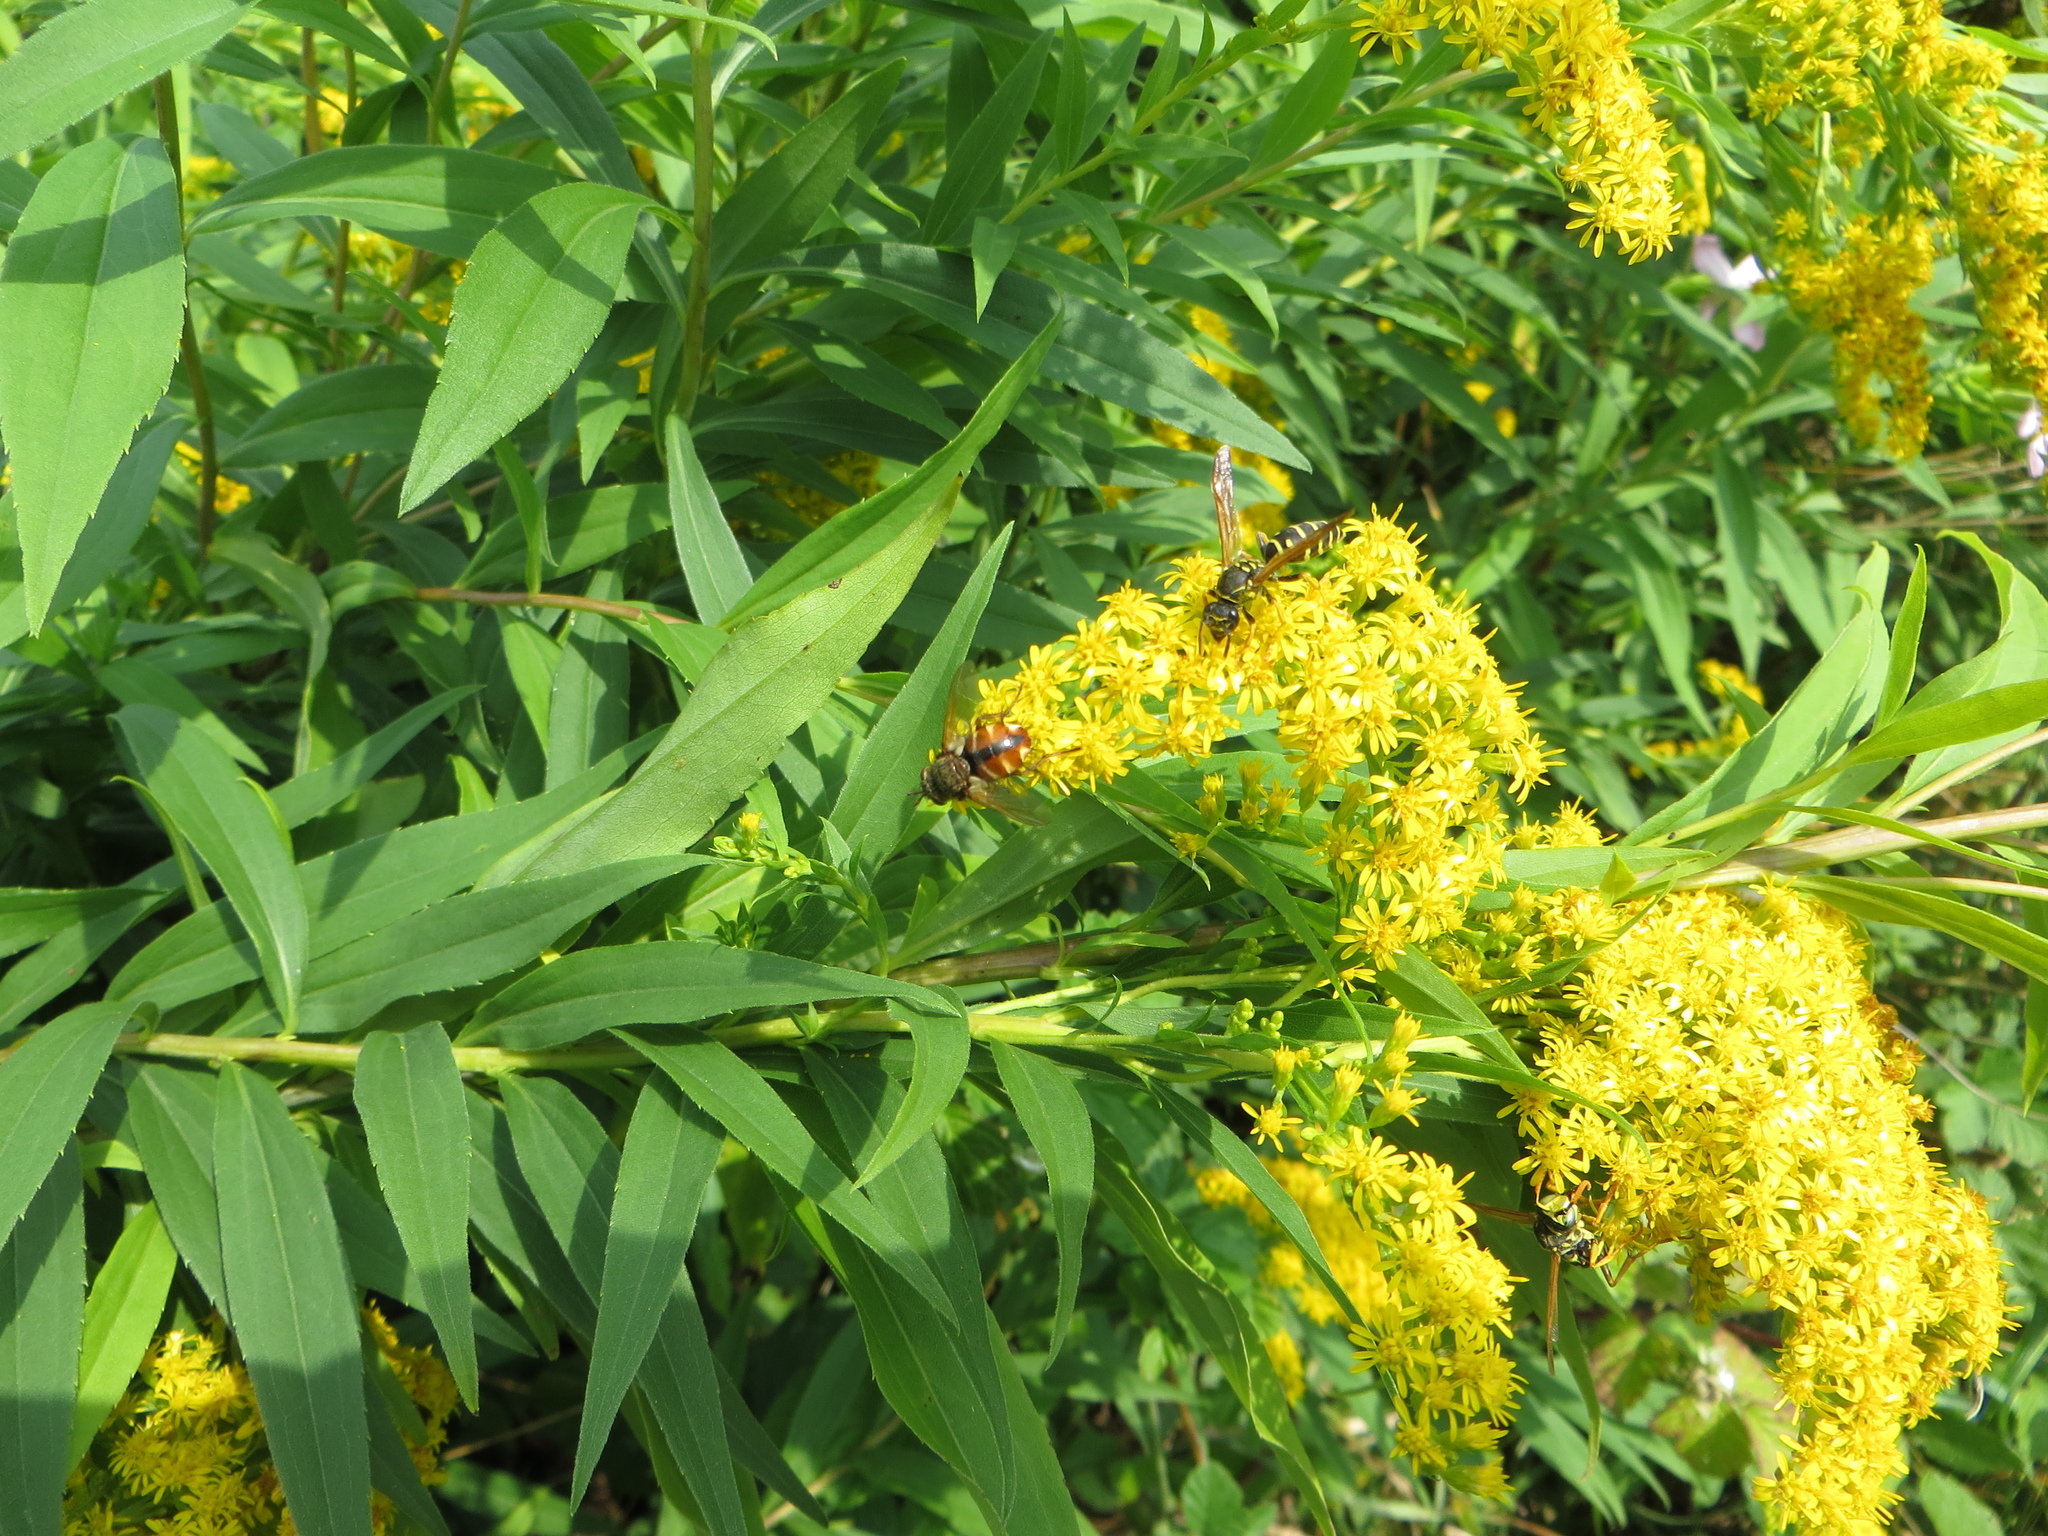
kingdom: Animalia
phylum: Arthropoda
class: Insecta
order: Diptera
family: Tachinidae
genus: Tachina
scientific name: Tachina fera
